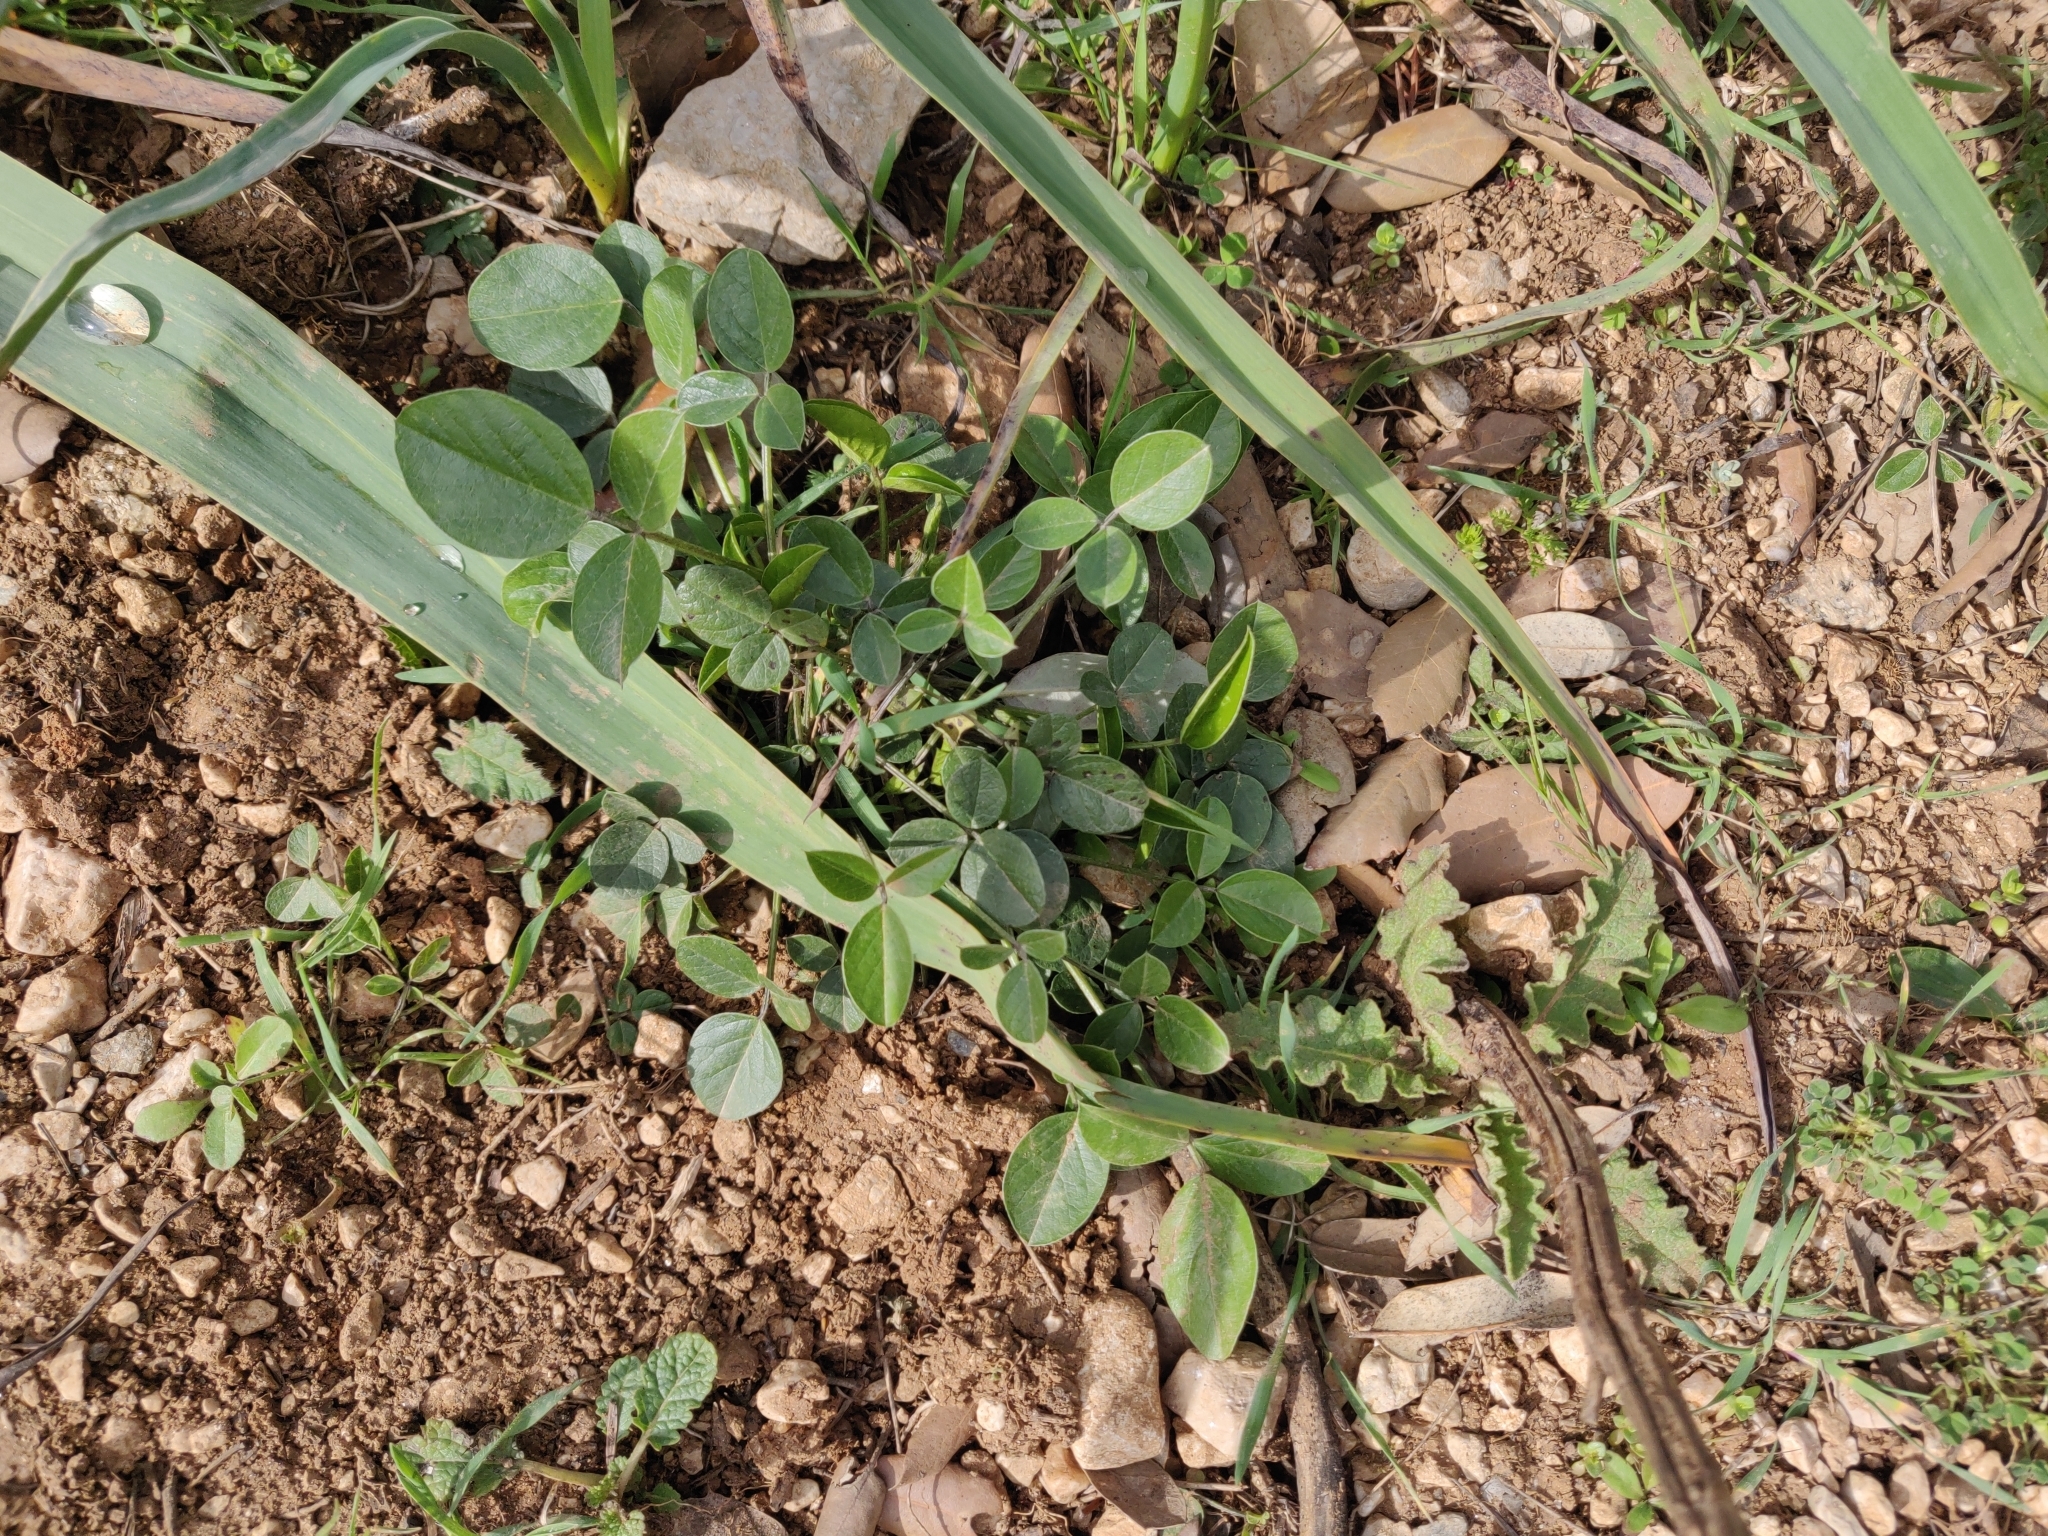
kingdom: Plantae
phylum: Tracheophyta
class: Magnoliopsida
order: Fabales
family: Fabaceae
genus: Bituminaria
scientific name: Bituminaria morisiana
